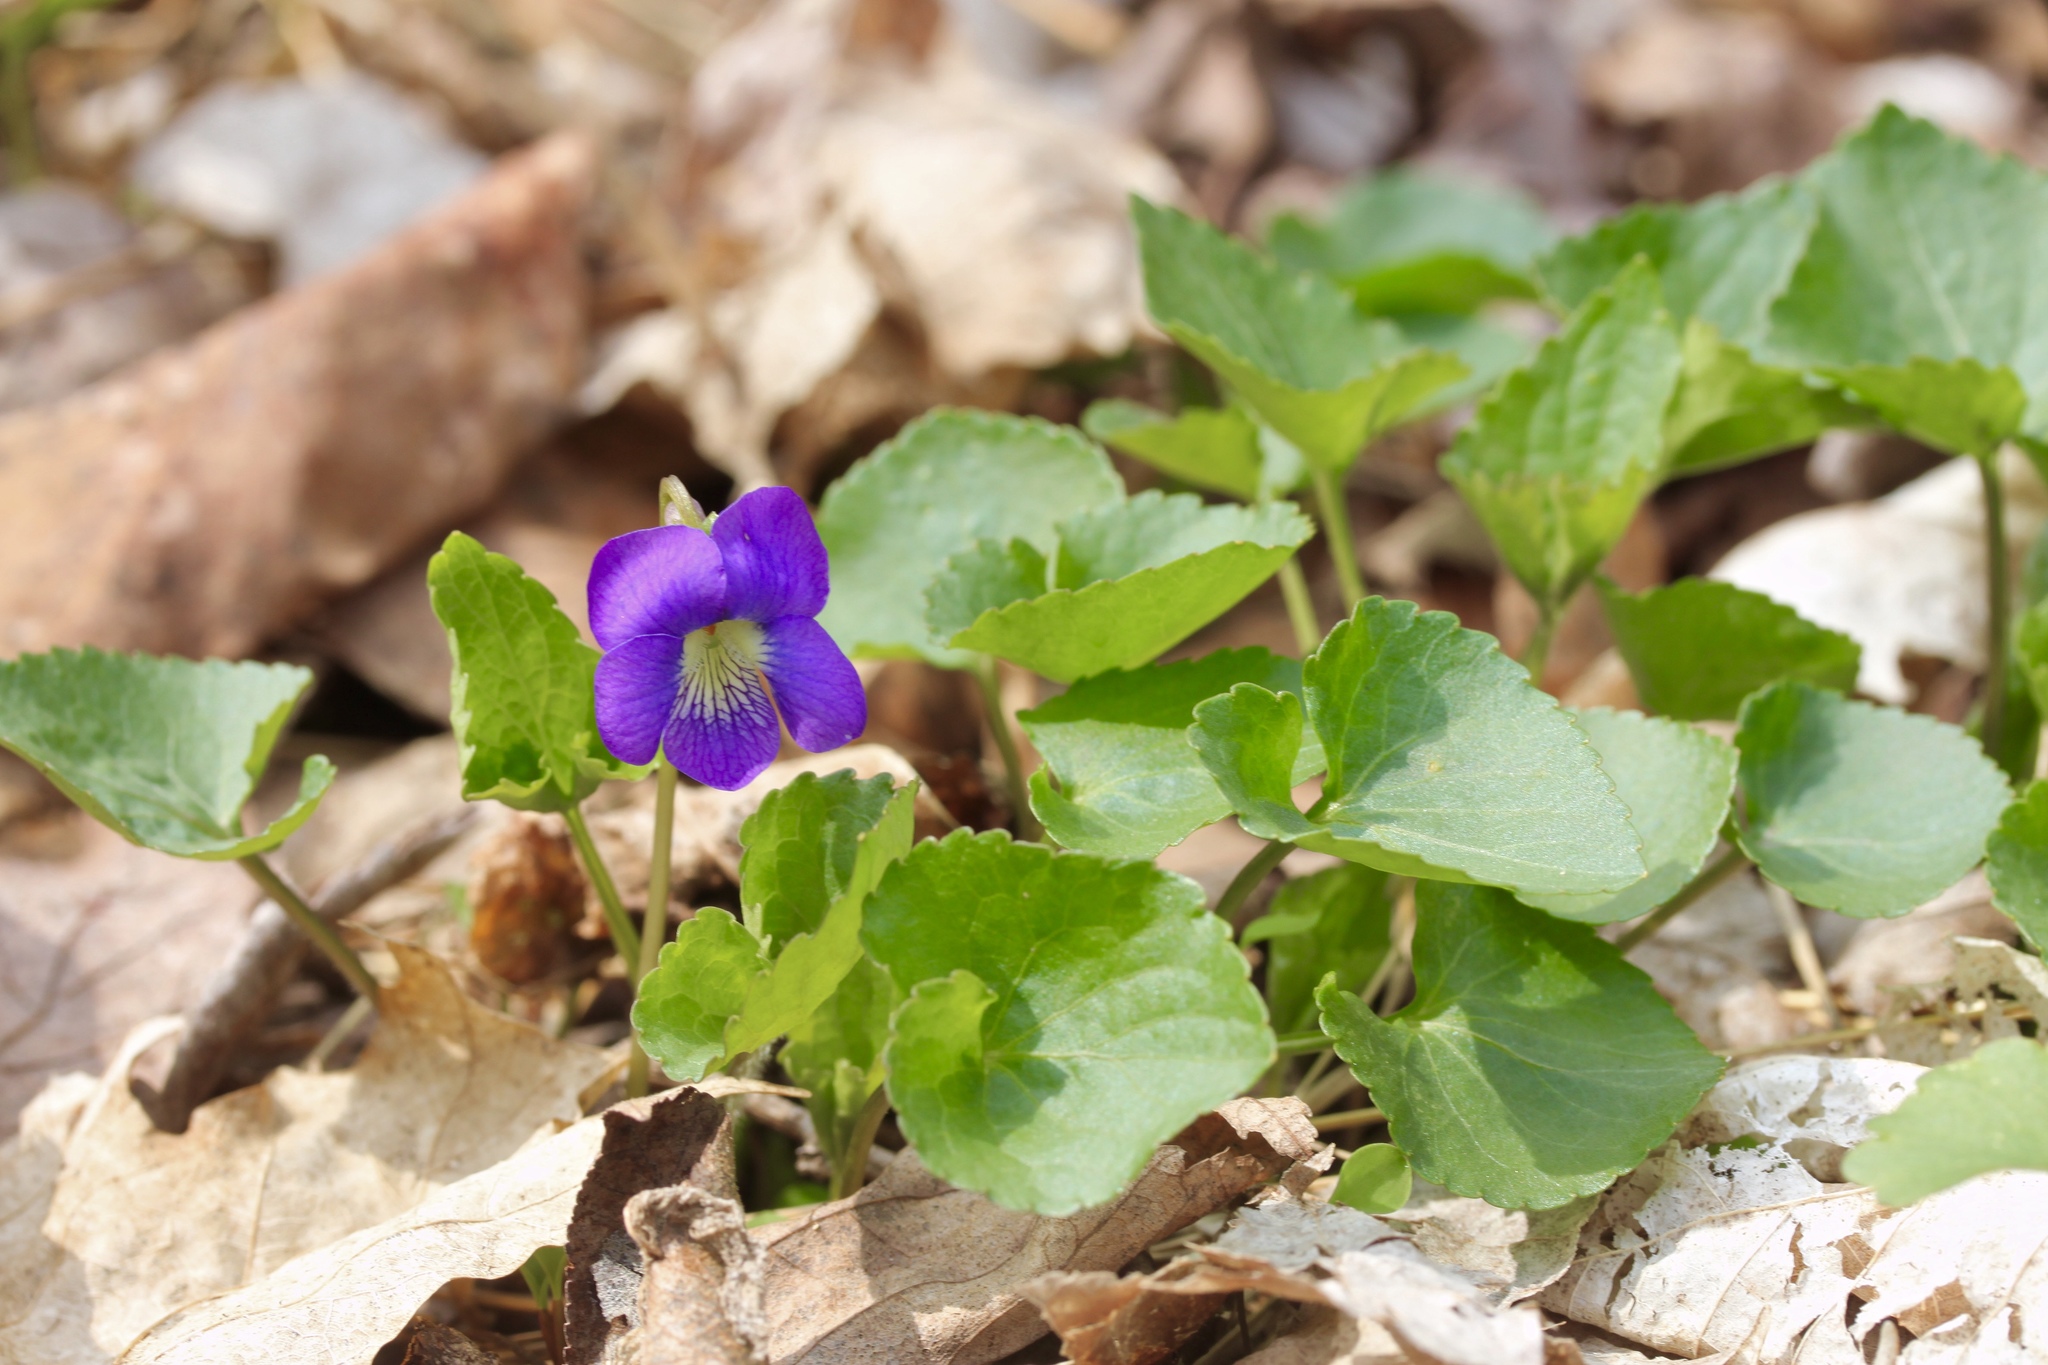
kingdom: Plantae
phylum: Tracheophyta
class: Magnoliopsida
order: Malpighiales
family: Violaceae
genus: Viola
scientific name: Viola sororia
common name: Dooryard violet
